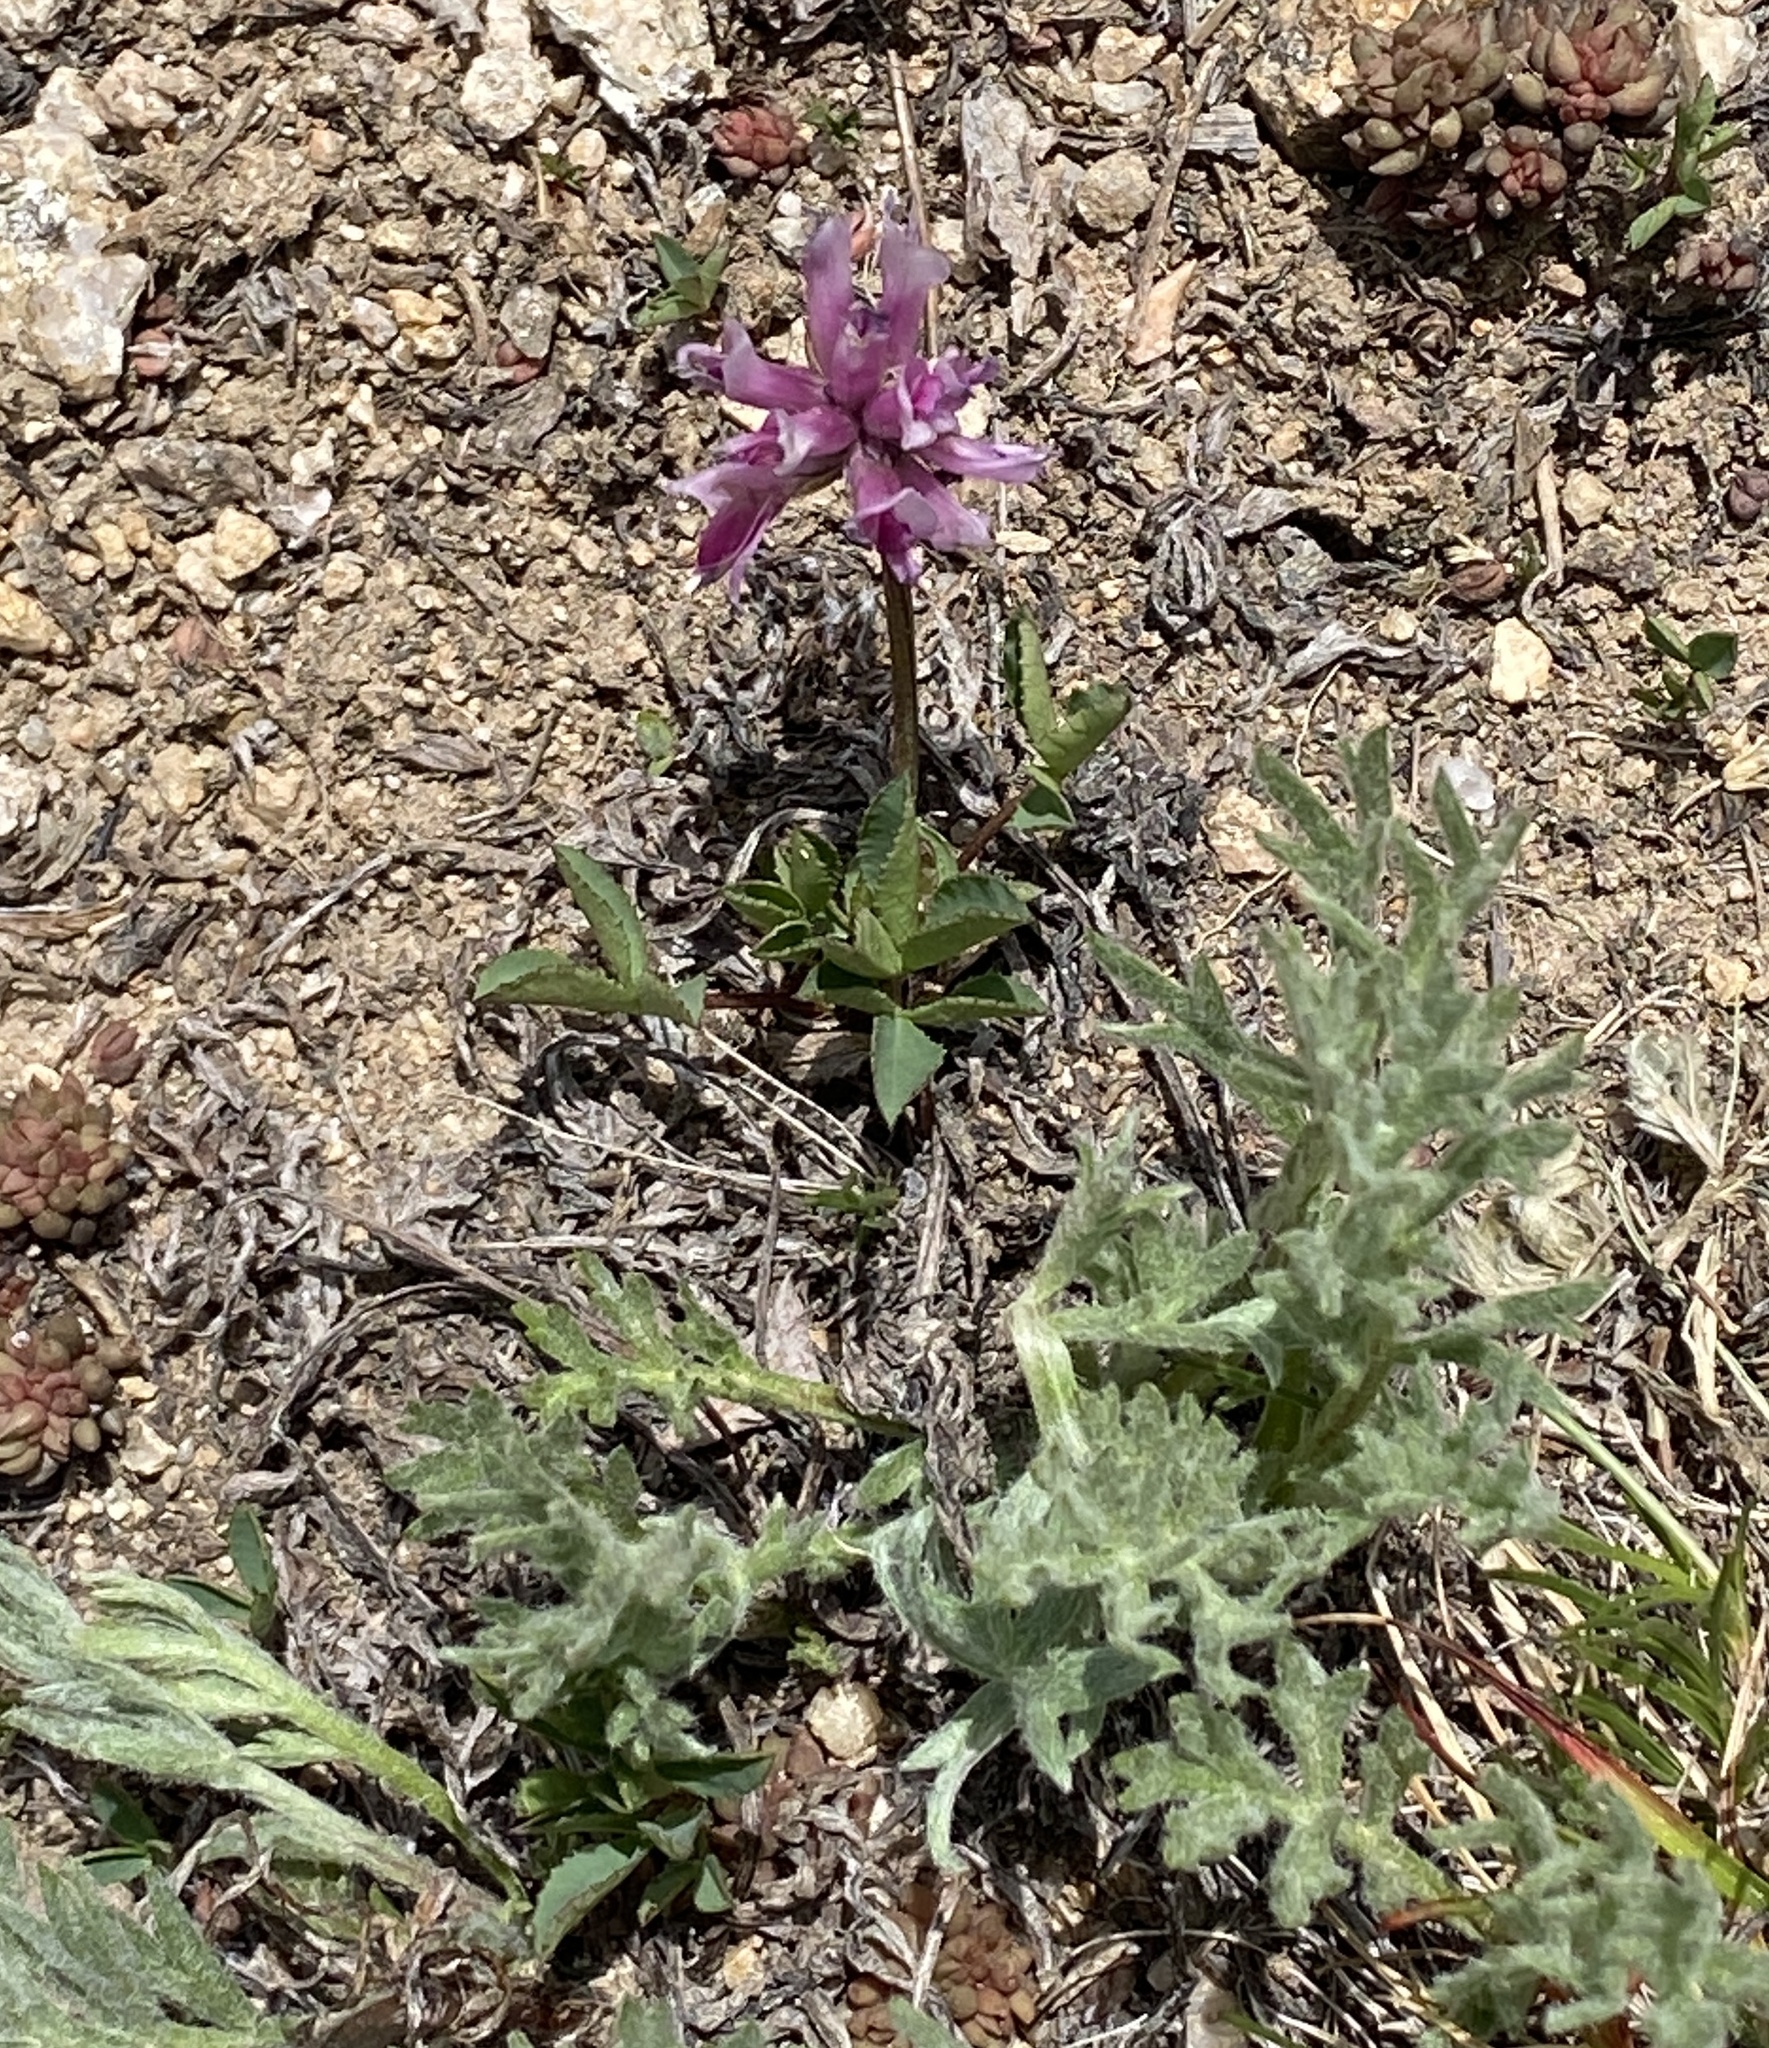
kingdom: Plantae
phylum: Tracheophyta
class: Magnoliopsida
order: Fabales
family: Fabaceae
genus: Trifolium
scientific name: Trifolium parryi
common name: Parry's clover
